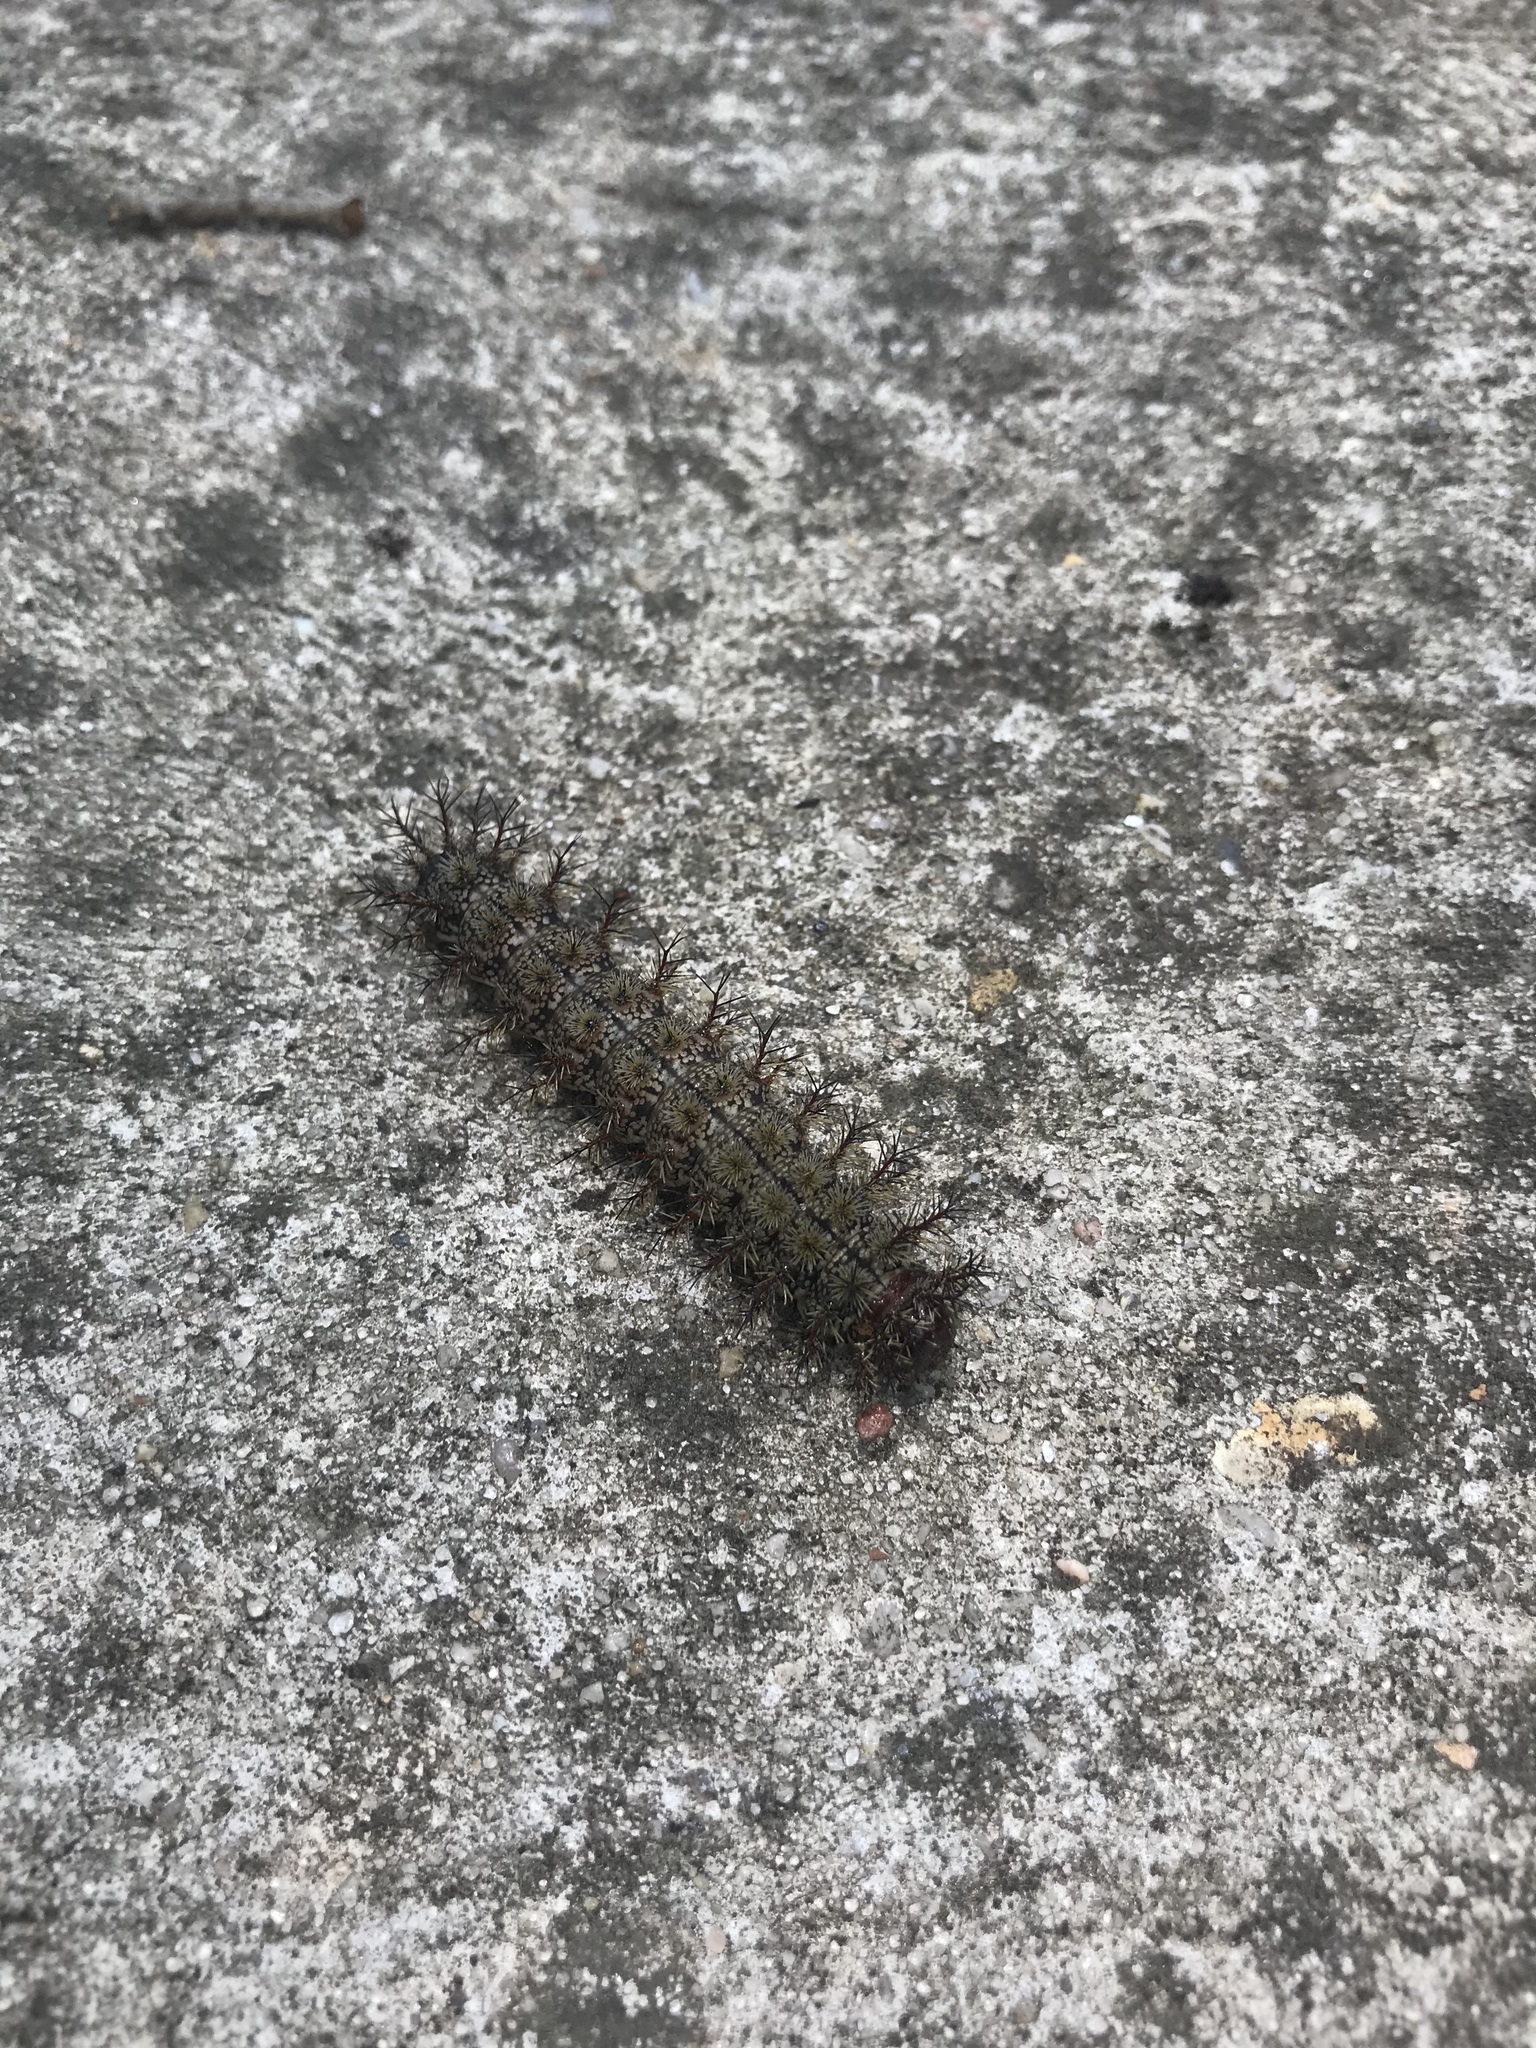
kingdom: Animalia
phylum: Arthropoda
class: Insecta
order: Lepidoptera
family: Saturniidae
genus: Hemileuca
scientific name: Hemileuca maia
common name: Eastern buckmoth
